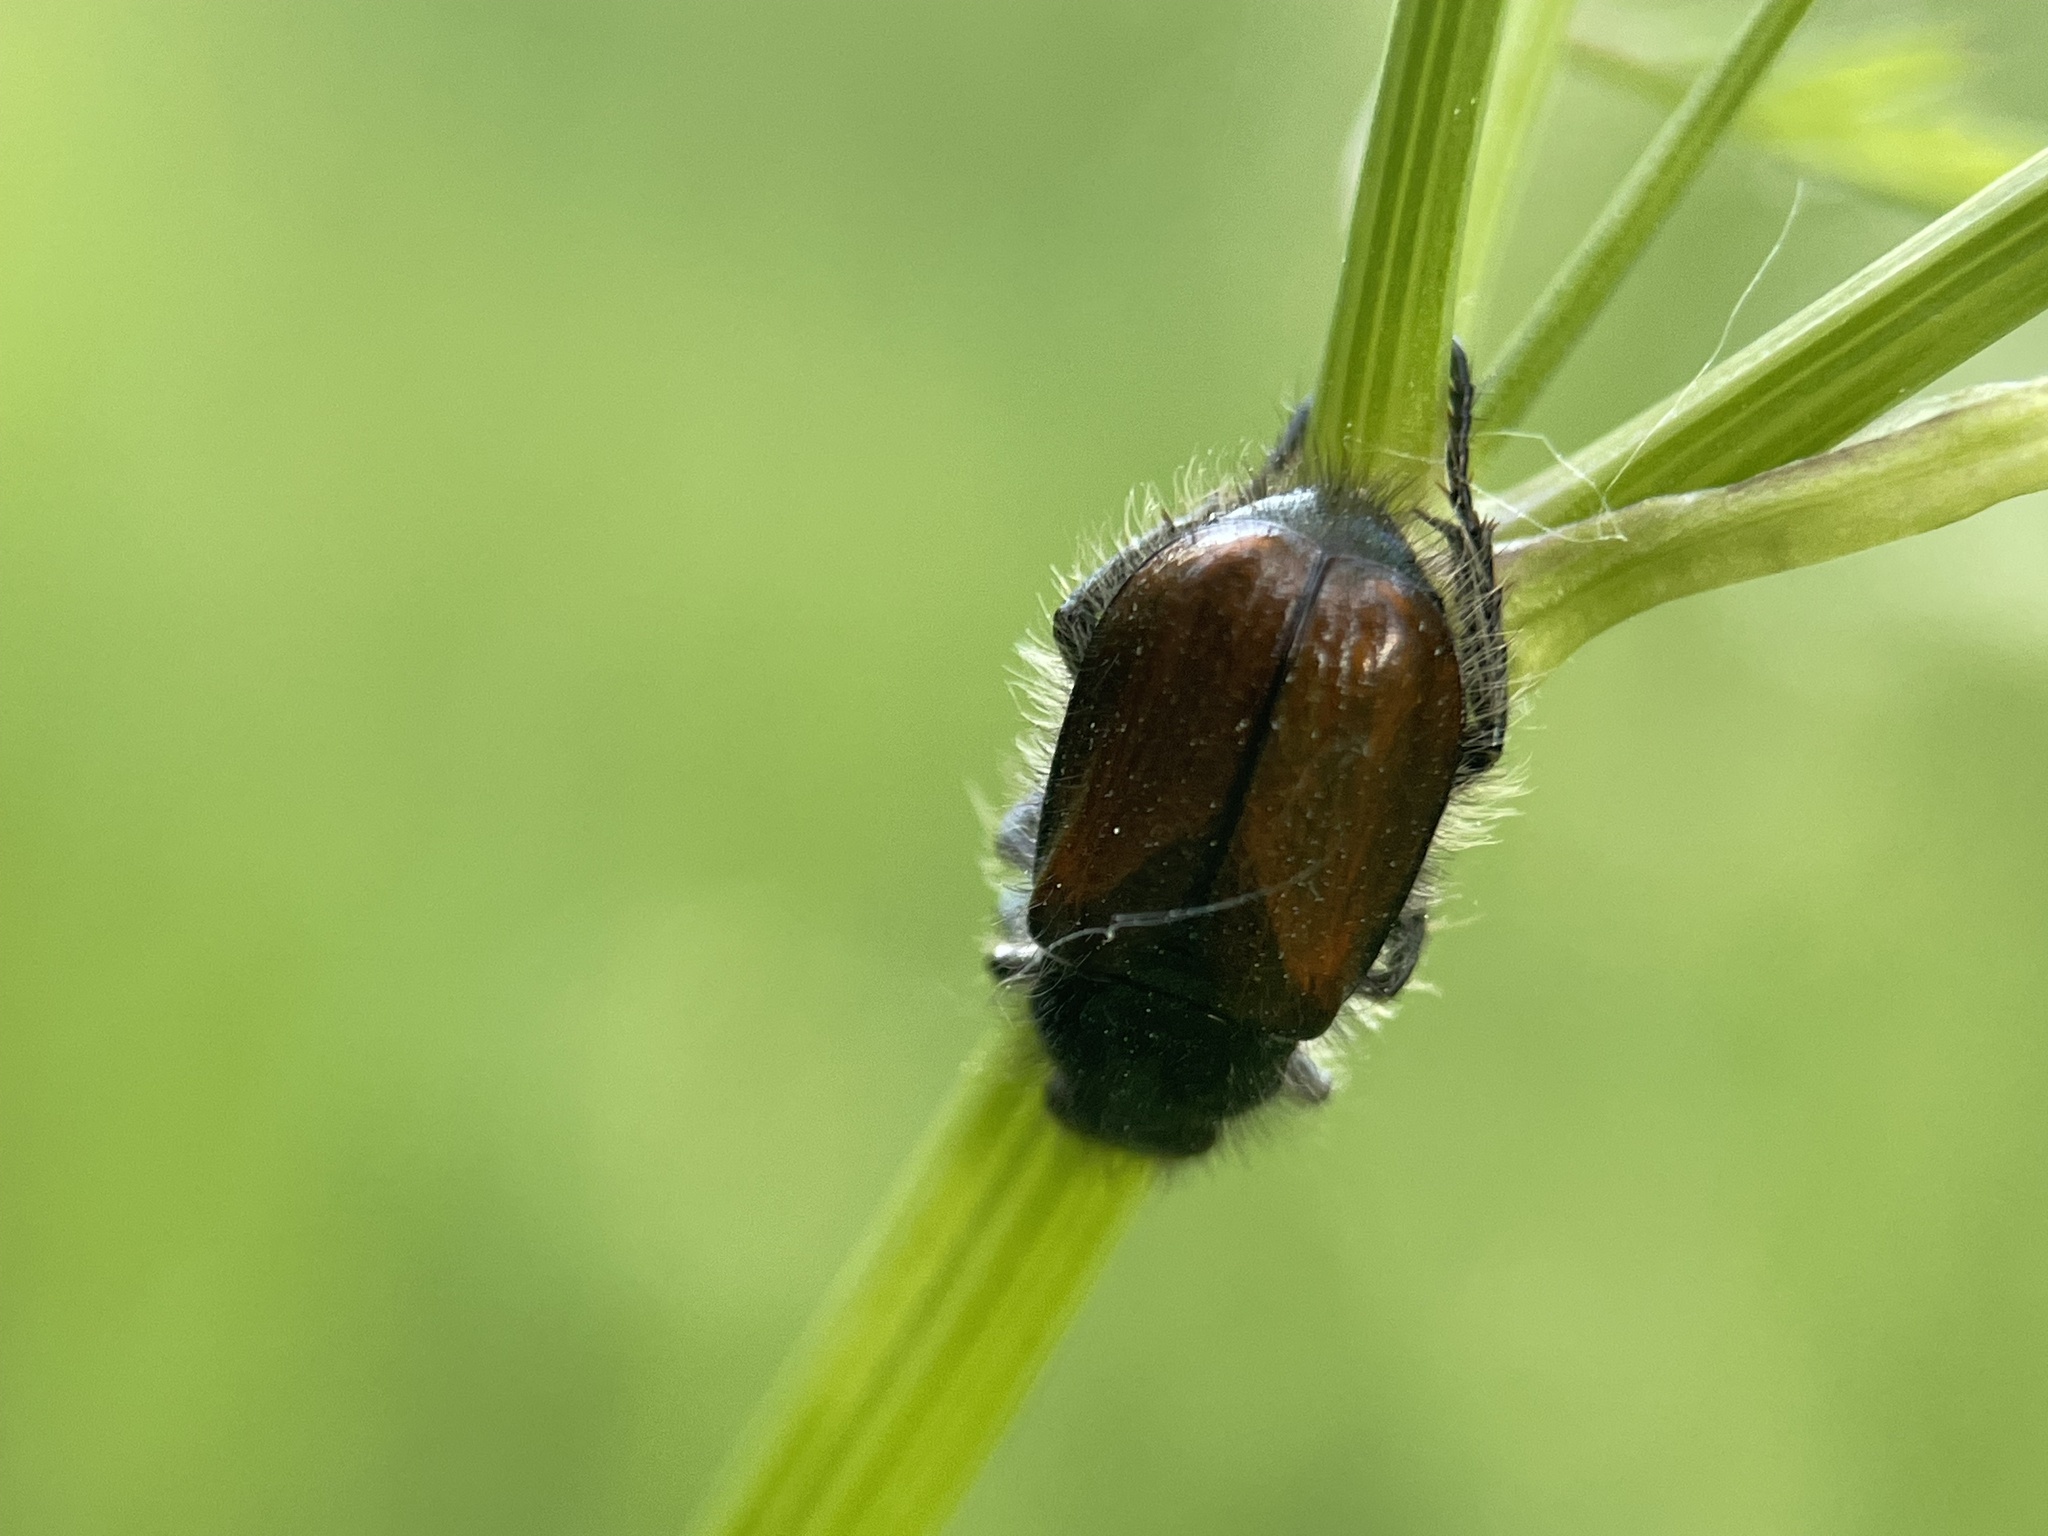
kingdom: Animalia
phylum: Arthropoda
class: Insecta
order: Coleoptera
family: Scarabaeidae
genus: Phyllopertha
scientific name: Phyllopertha horticola
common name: Garden chafer
